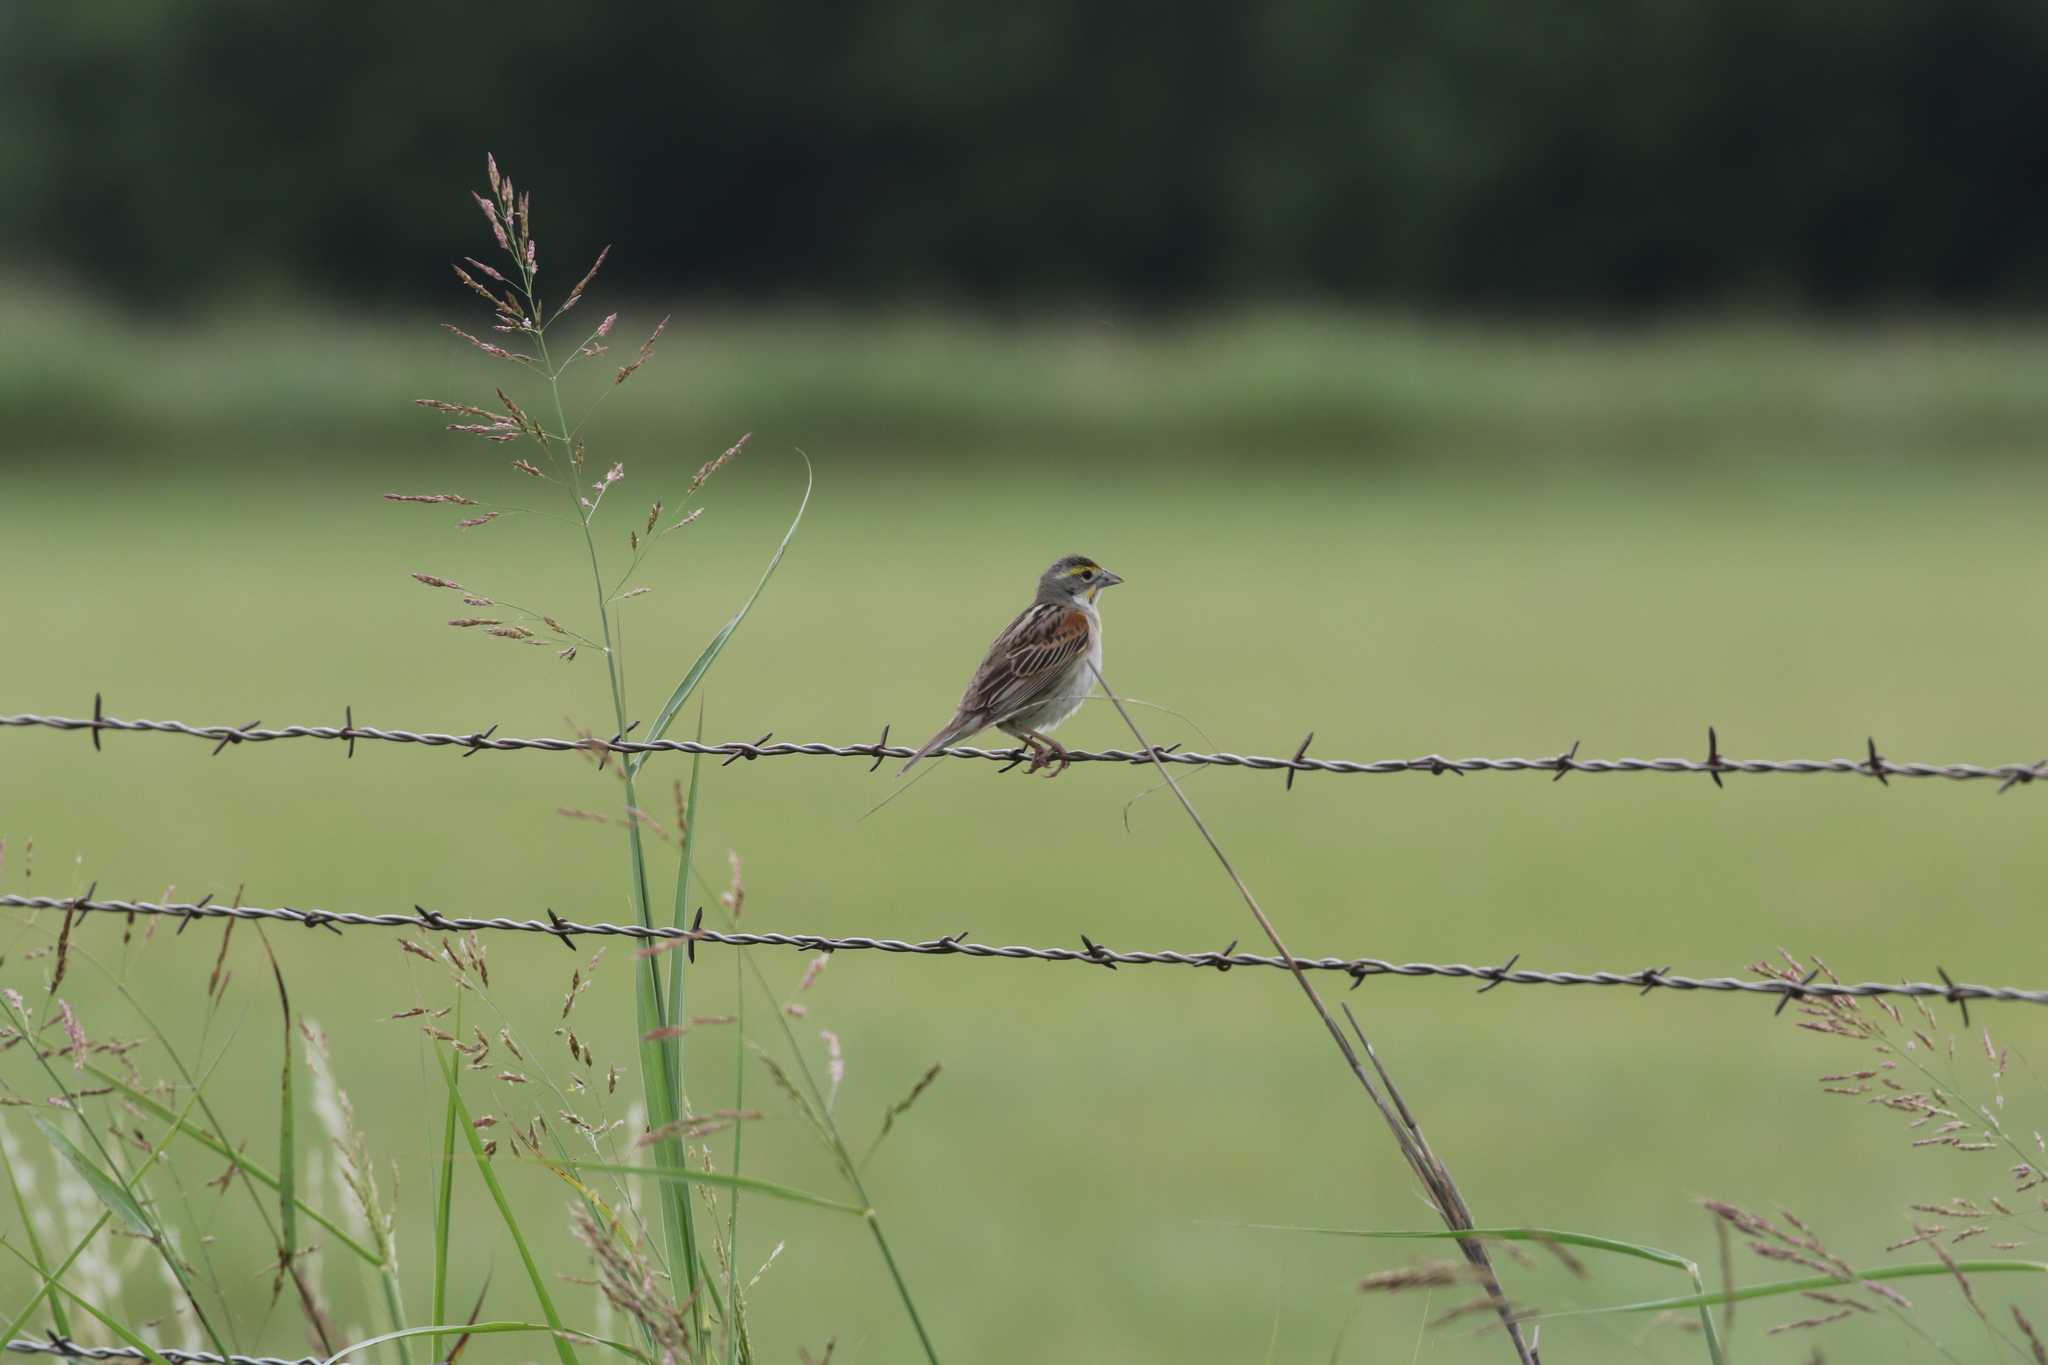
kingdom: Animalia
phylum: Chordata
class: Aves
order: Passeriformes
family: Cardinalidae
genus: Spiza
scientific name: Spiza americana
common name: Dickcissel
